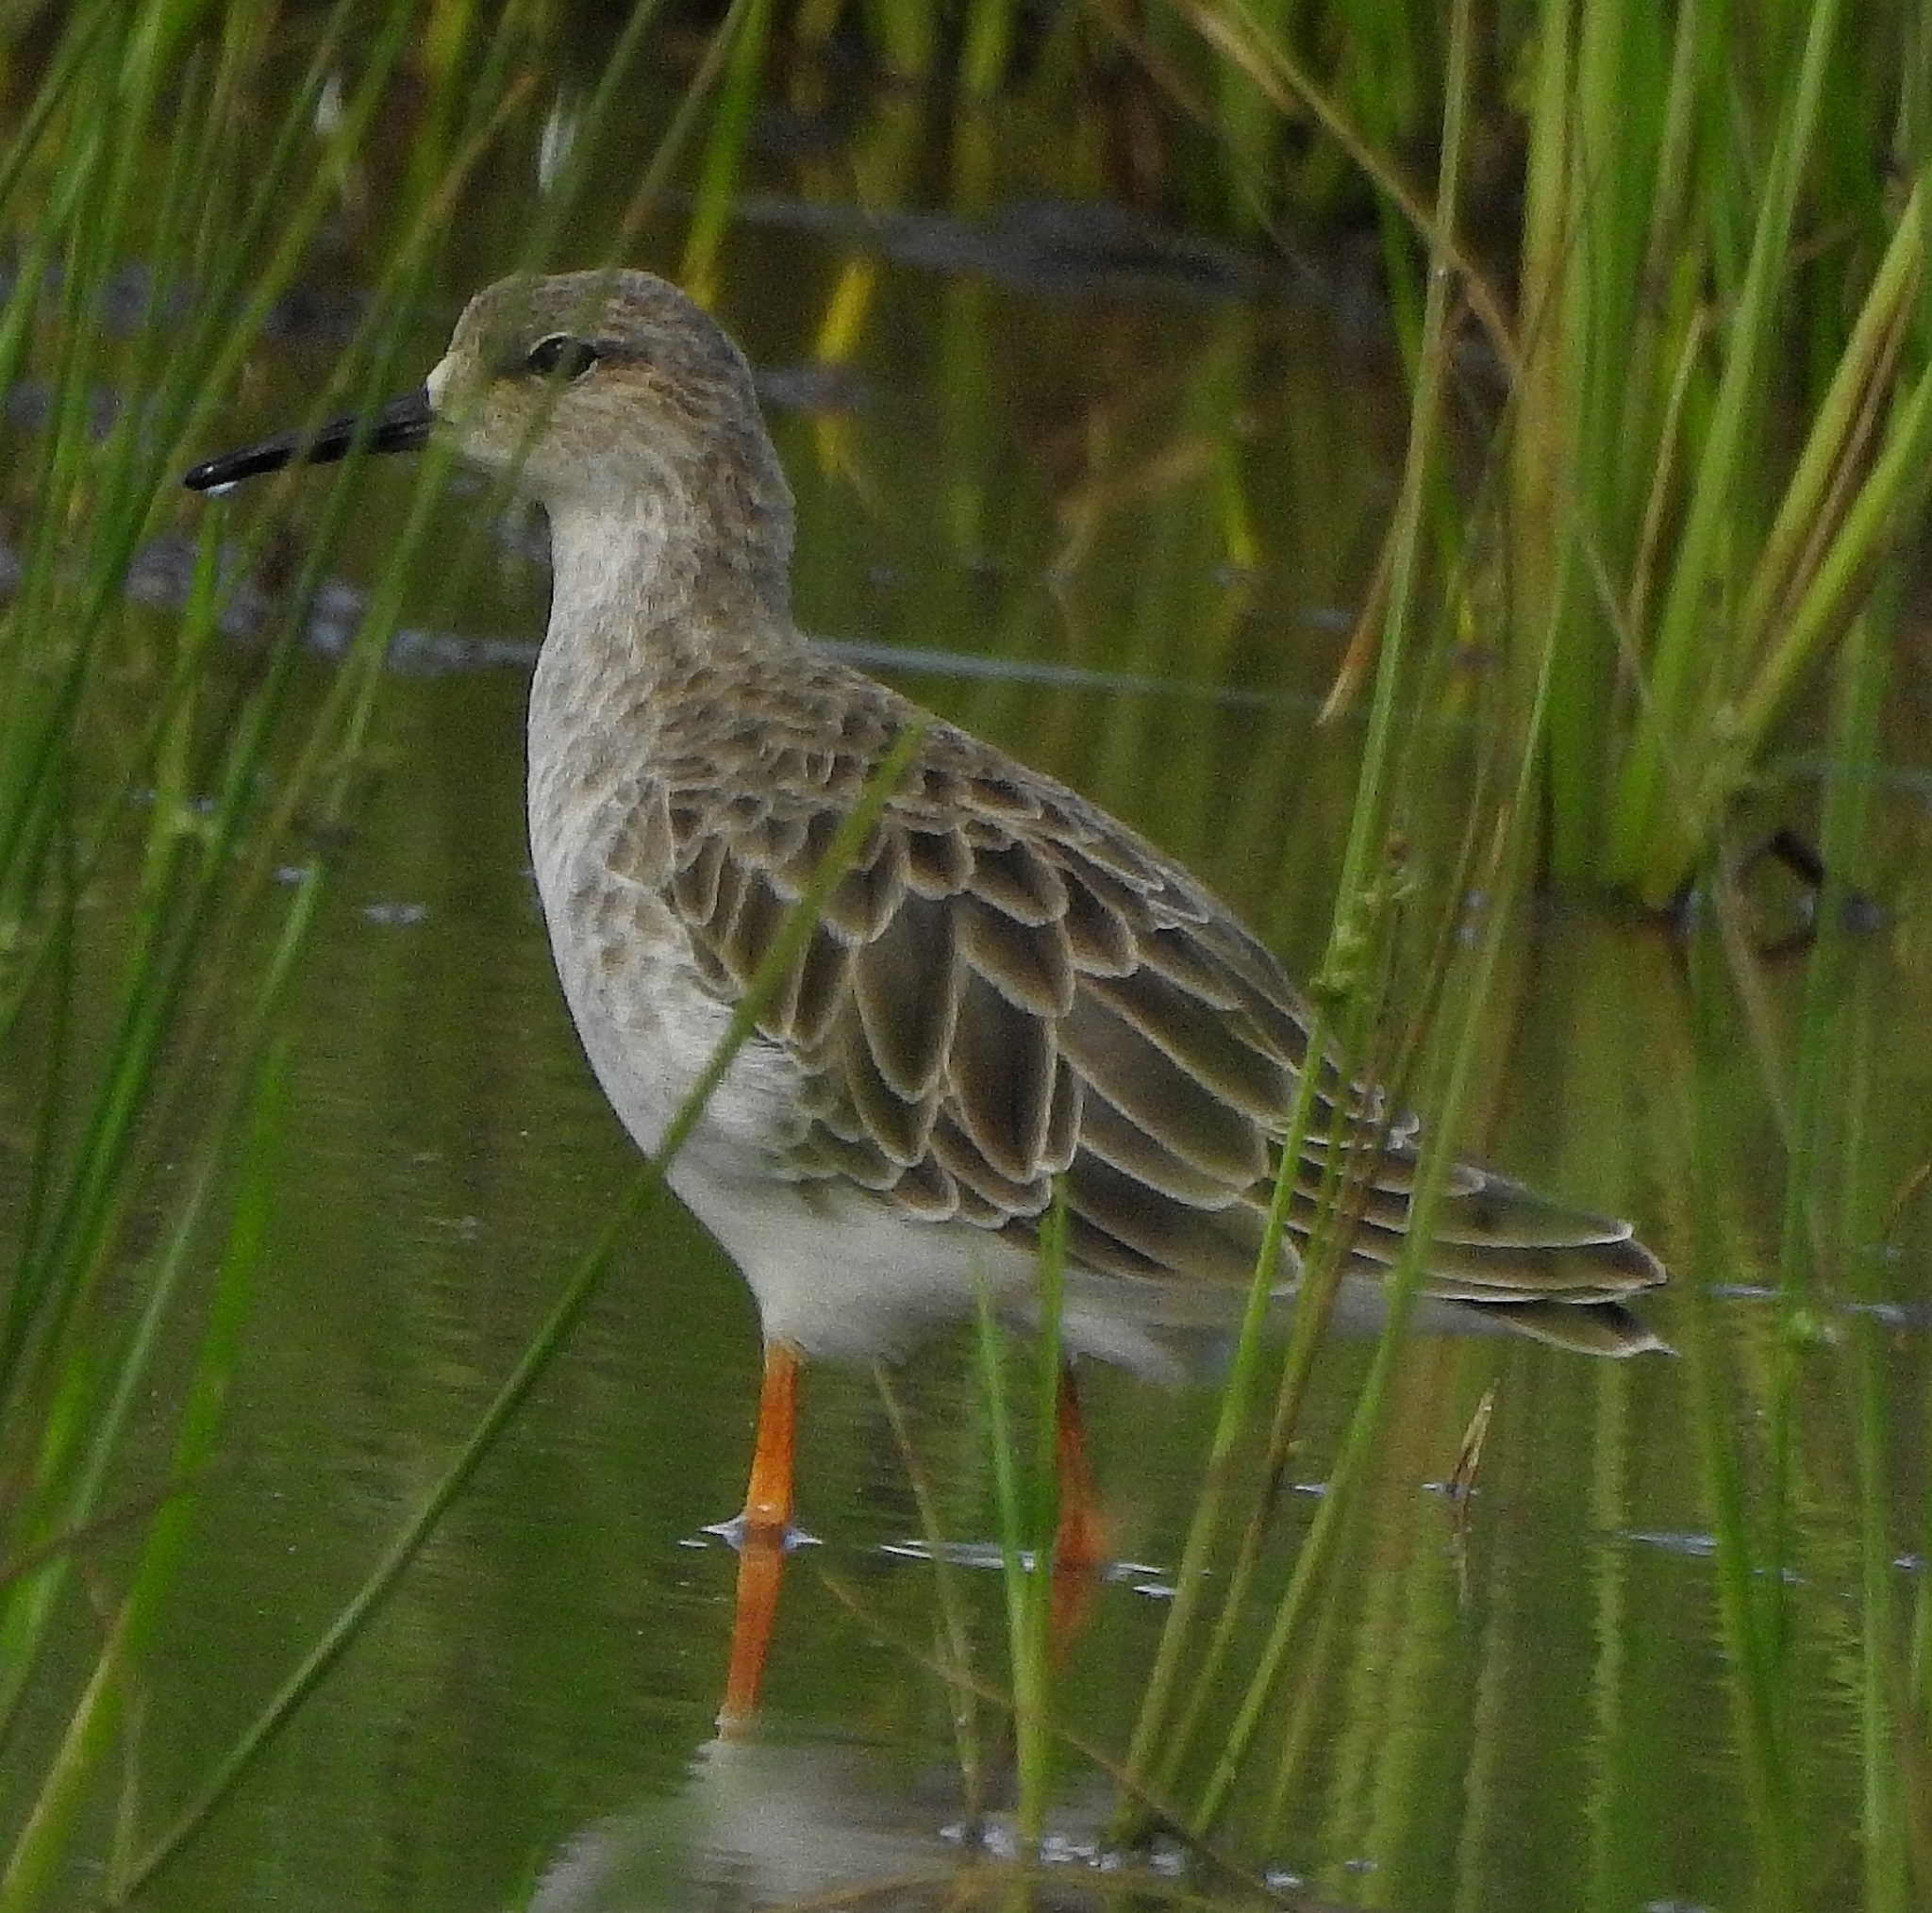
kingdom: Animalia
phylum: Chordata
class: Aves
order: Charadriiformes
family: Scolopacidae
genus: Calidris
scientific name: Calidris pugnax
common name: Ruff
